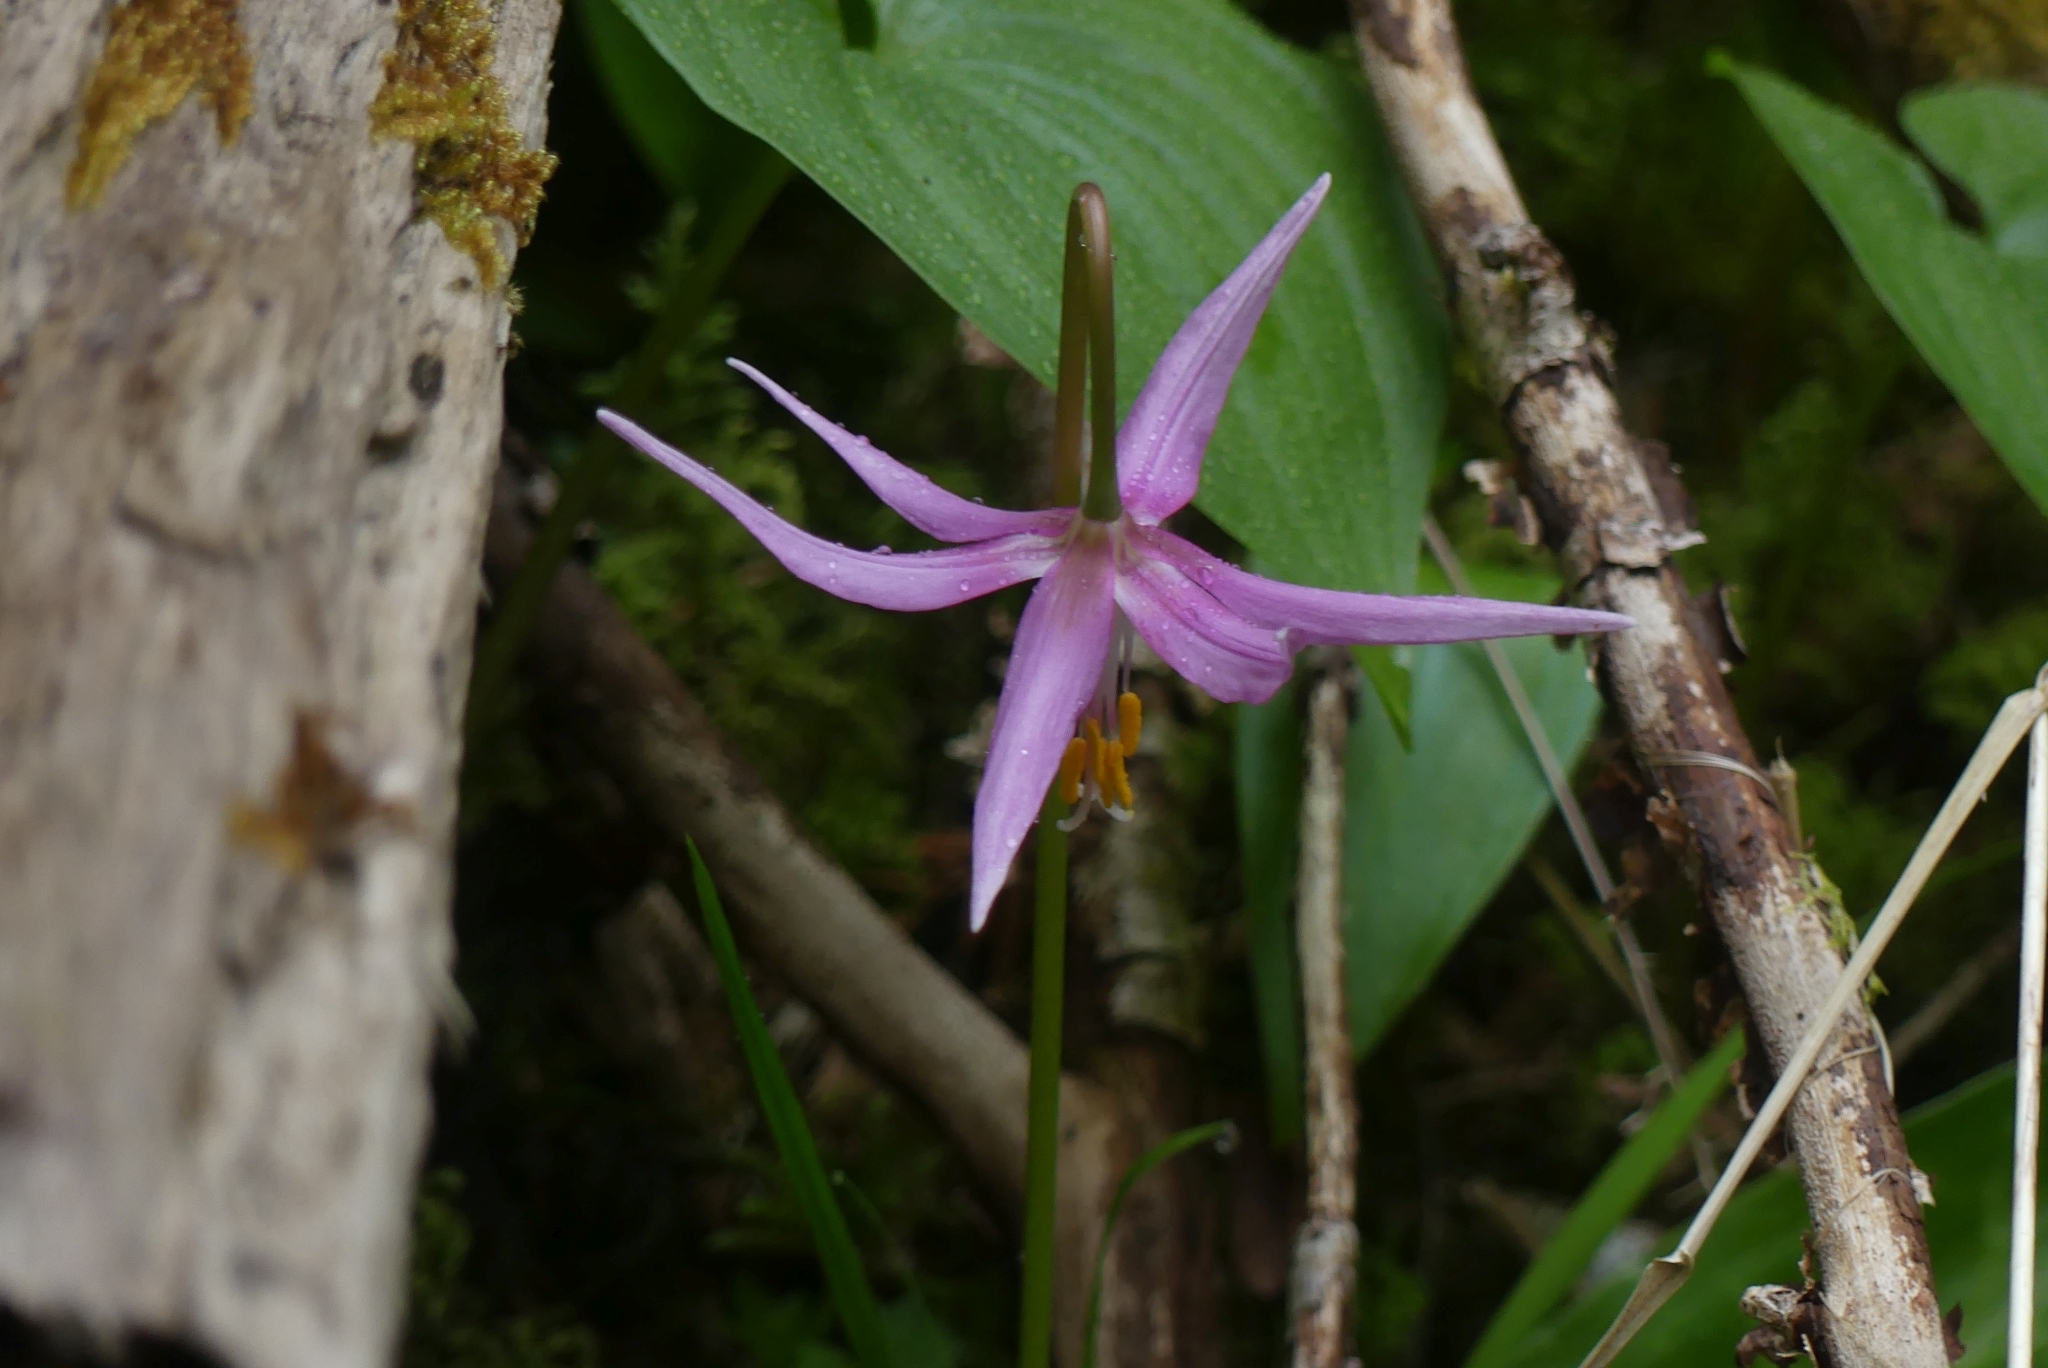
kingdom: Plantae
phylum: Tracheophyta
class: Liliopsida
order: Liliales
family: Liliaceae
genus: Erythronium
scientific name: Erythronium revolutum
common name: Pink fawn-lily
